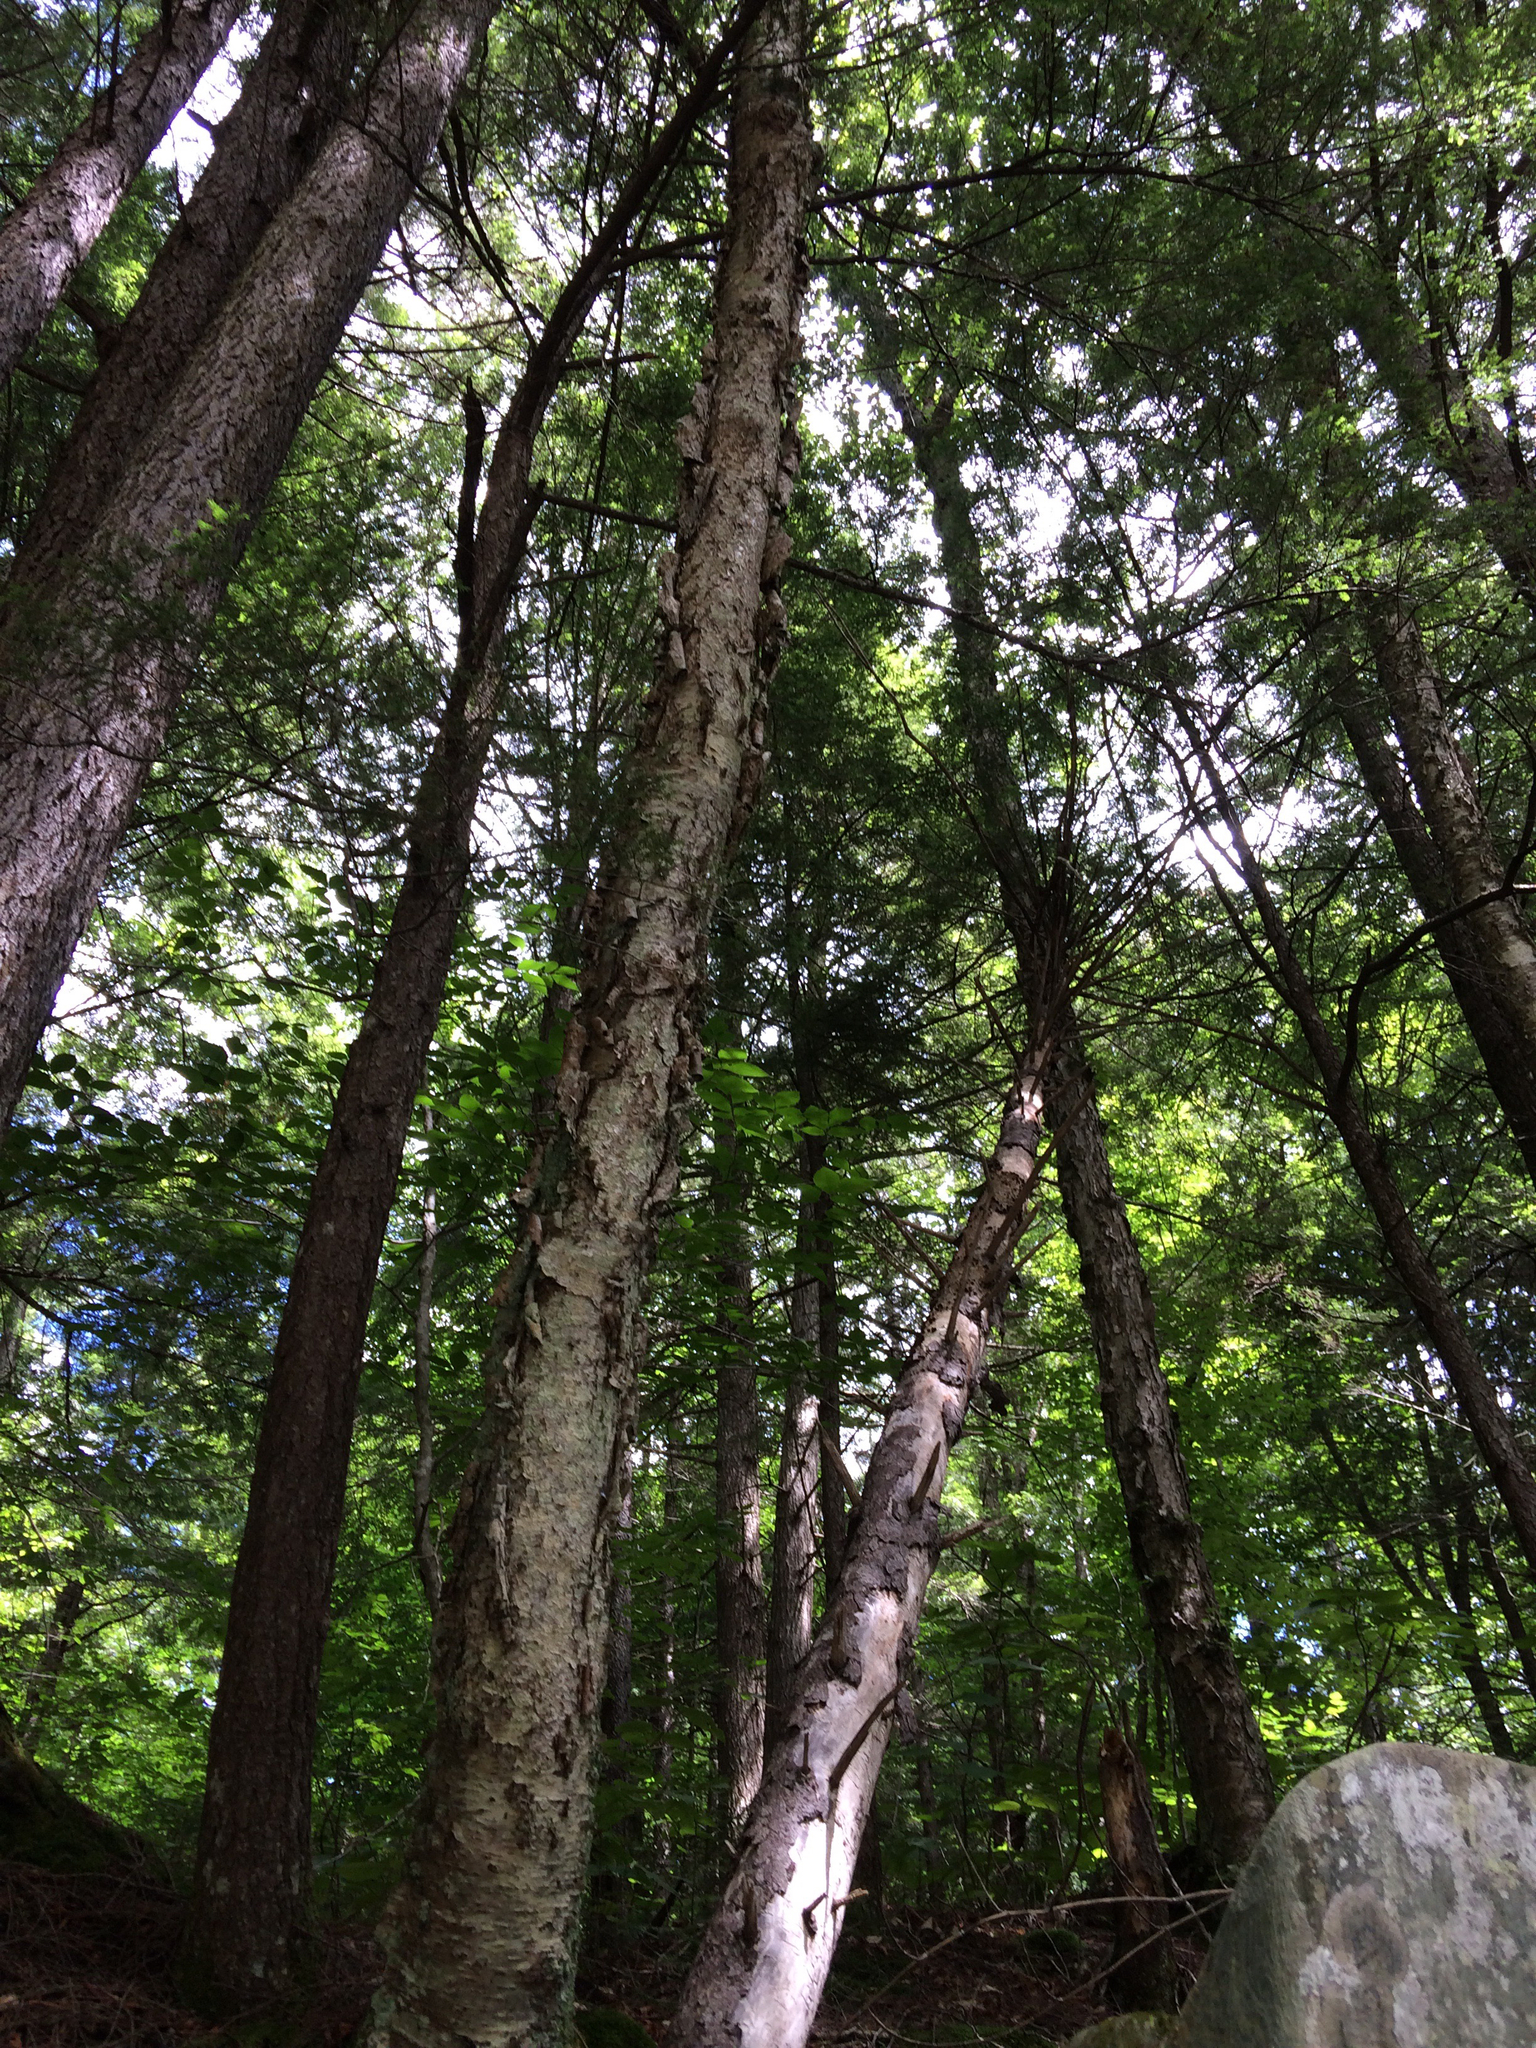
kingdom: Plantae
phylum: Tracheophyta
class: Magnoliopsida
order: Fagales
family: Betulaceae
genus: Betula
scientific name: Betula alleghaniensis
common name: Yellow birch
